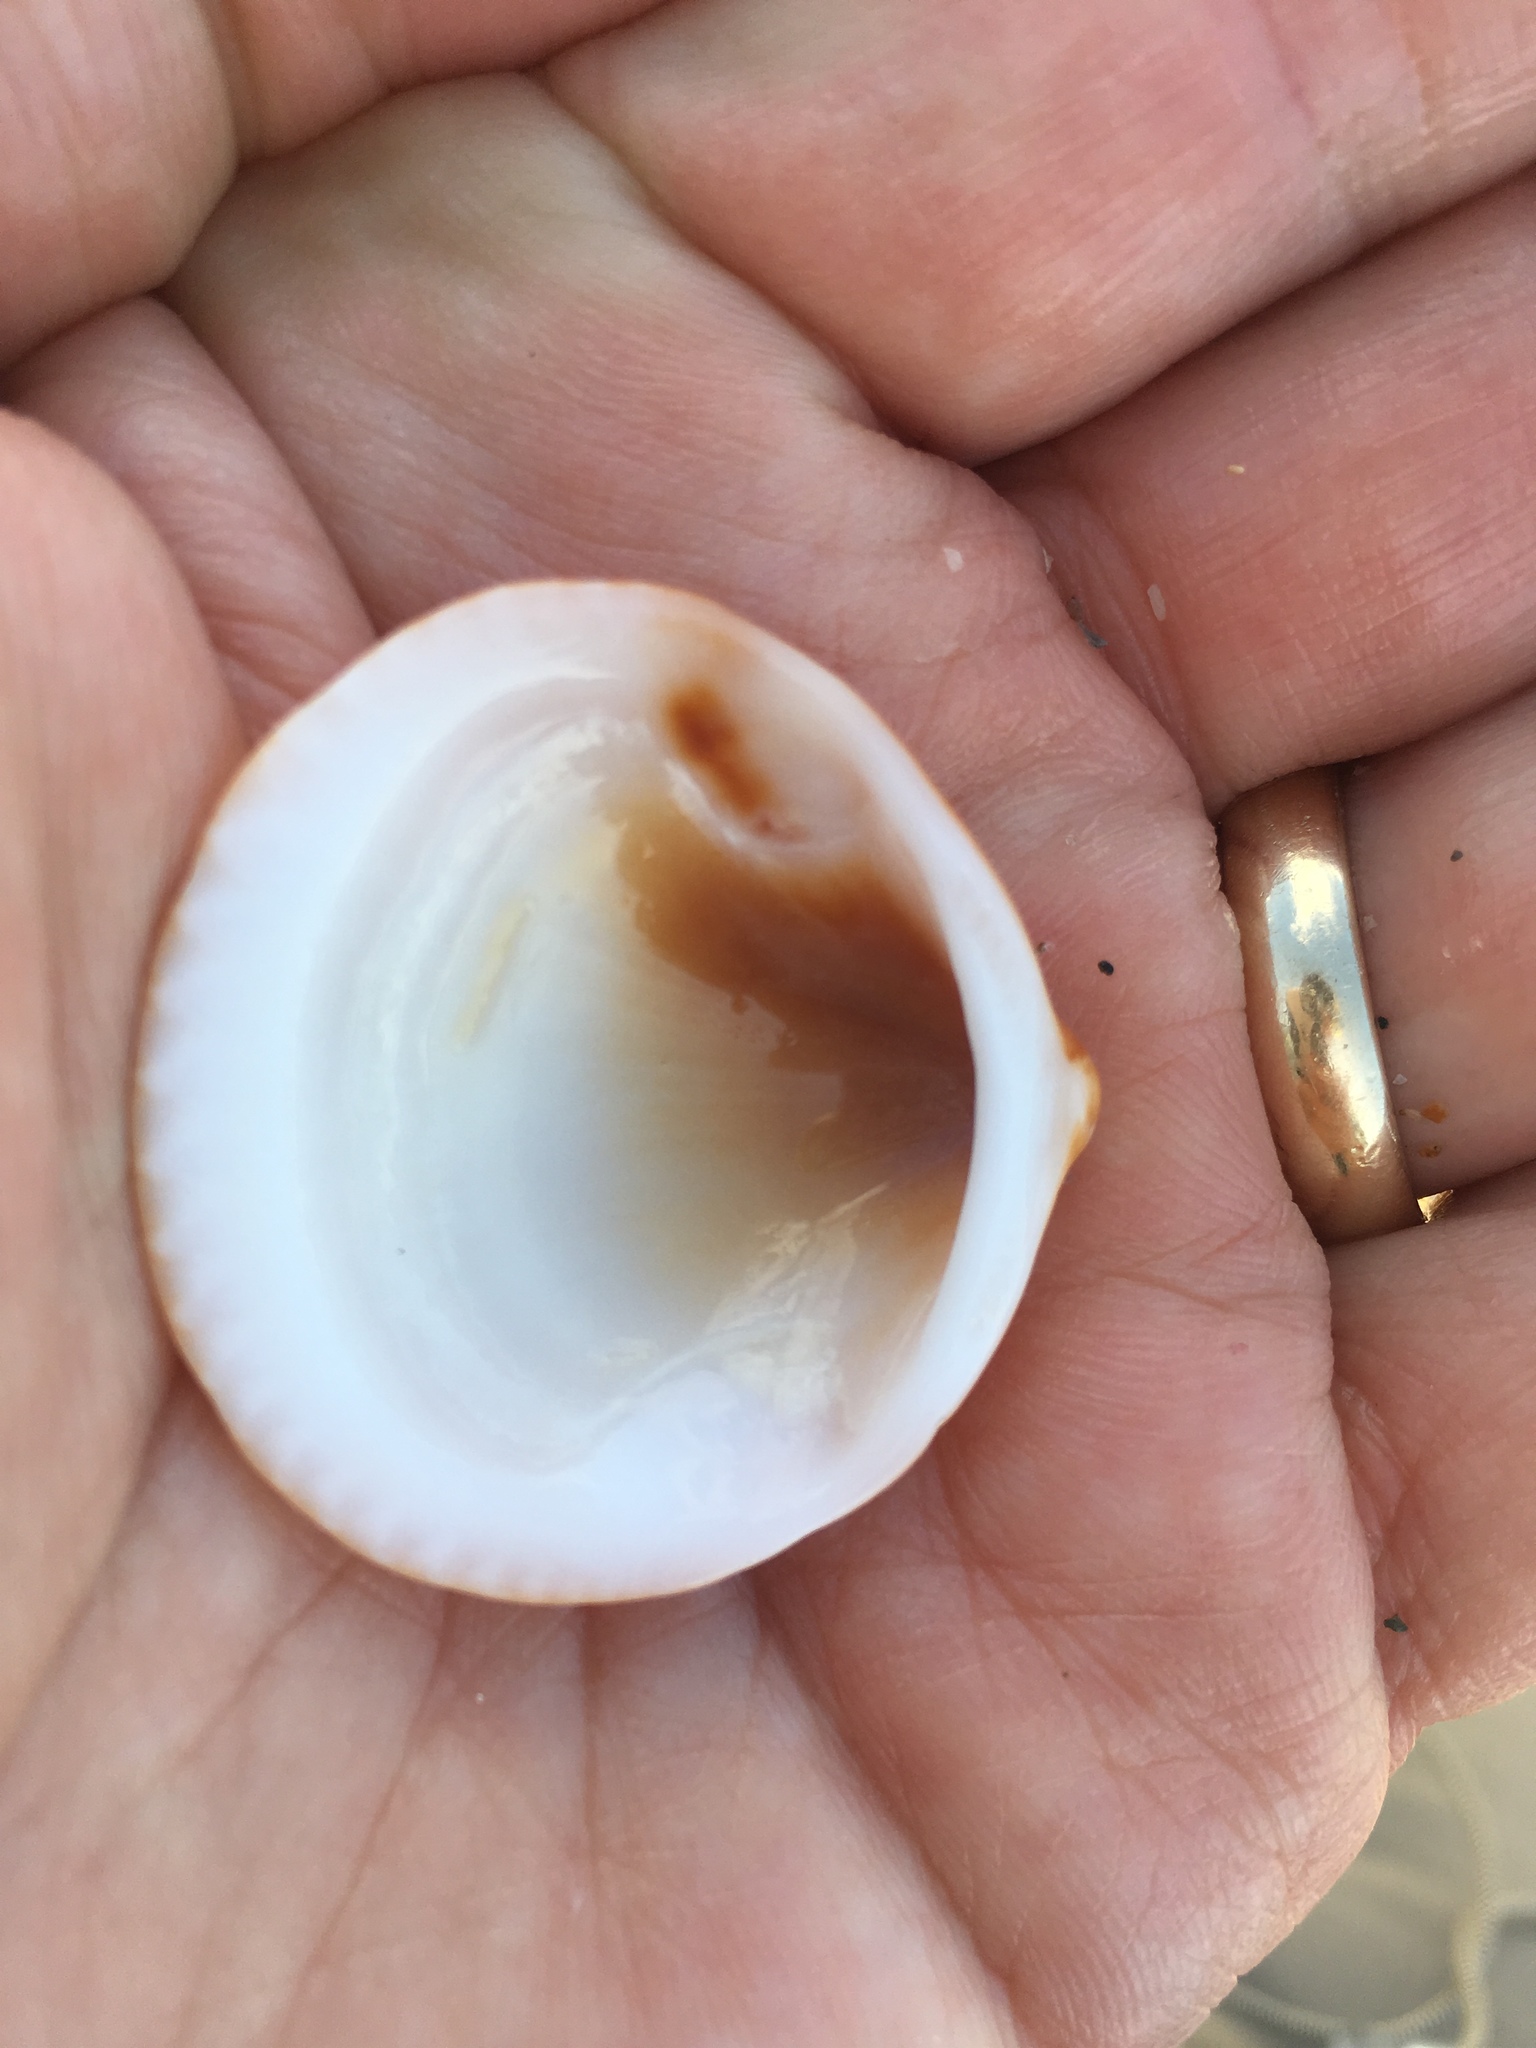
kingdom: Animalia
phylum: Mollusca
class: Bivalvia
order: Arcida
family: Glycymerididae
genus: Glycymeris
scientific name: Glycymeris spectralis
